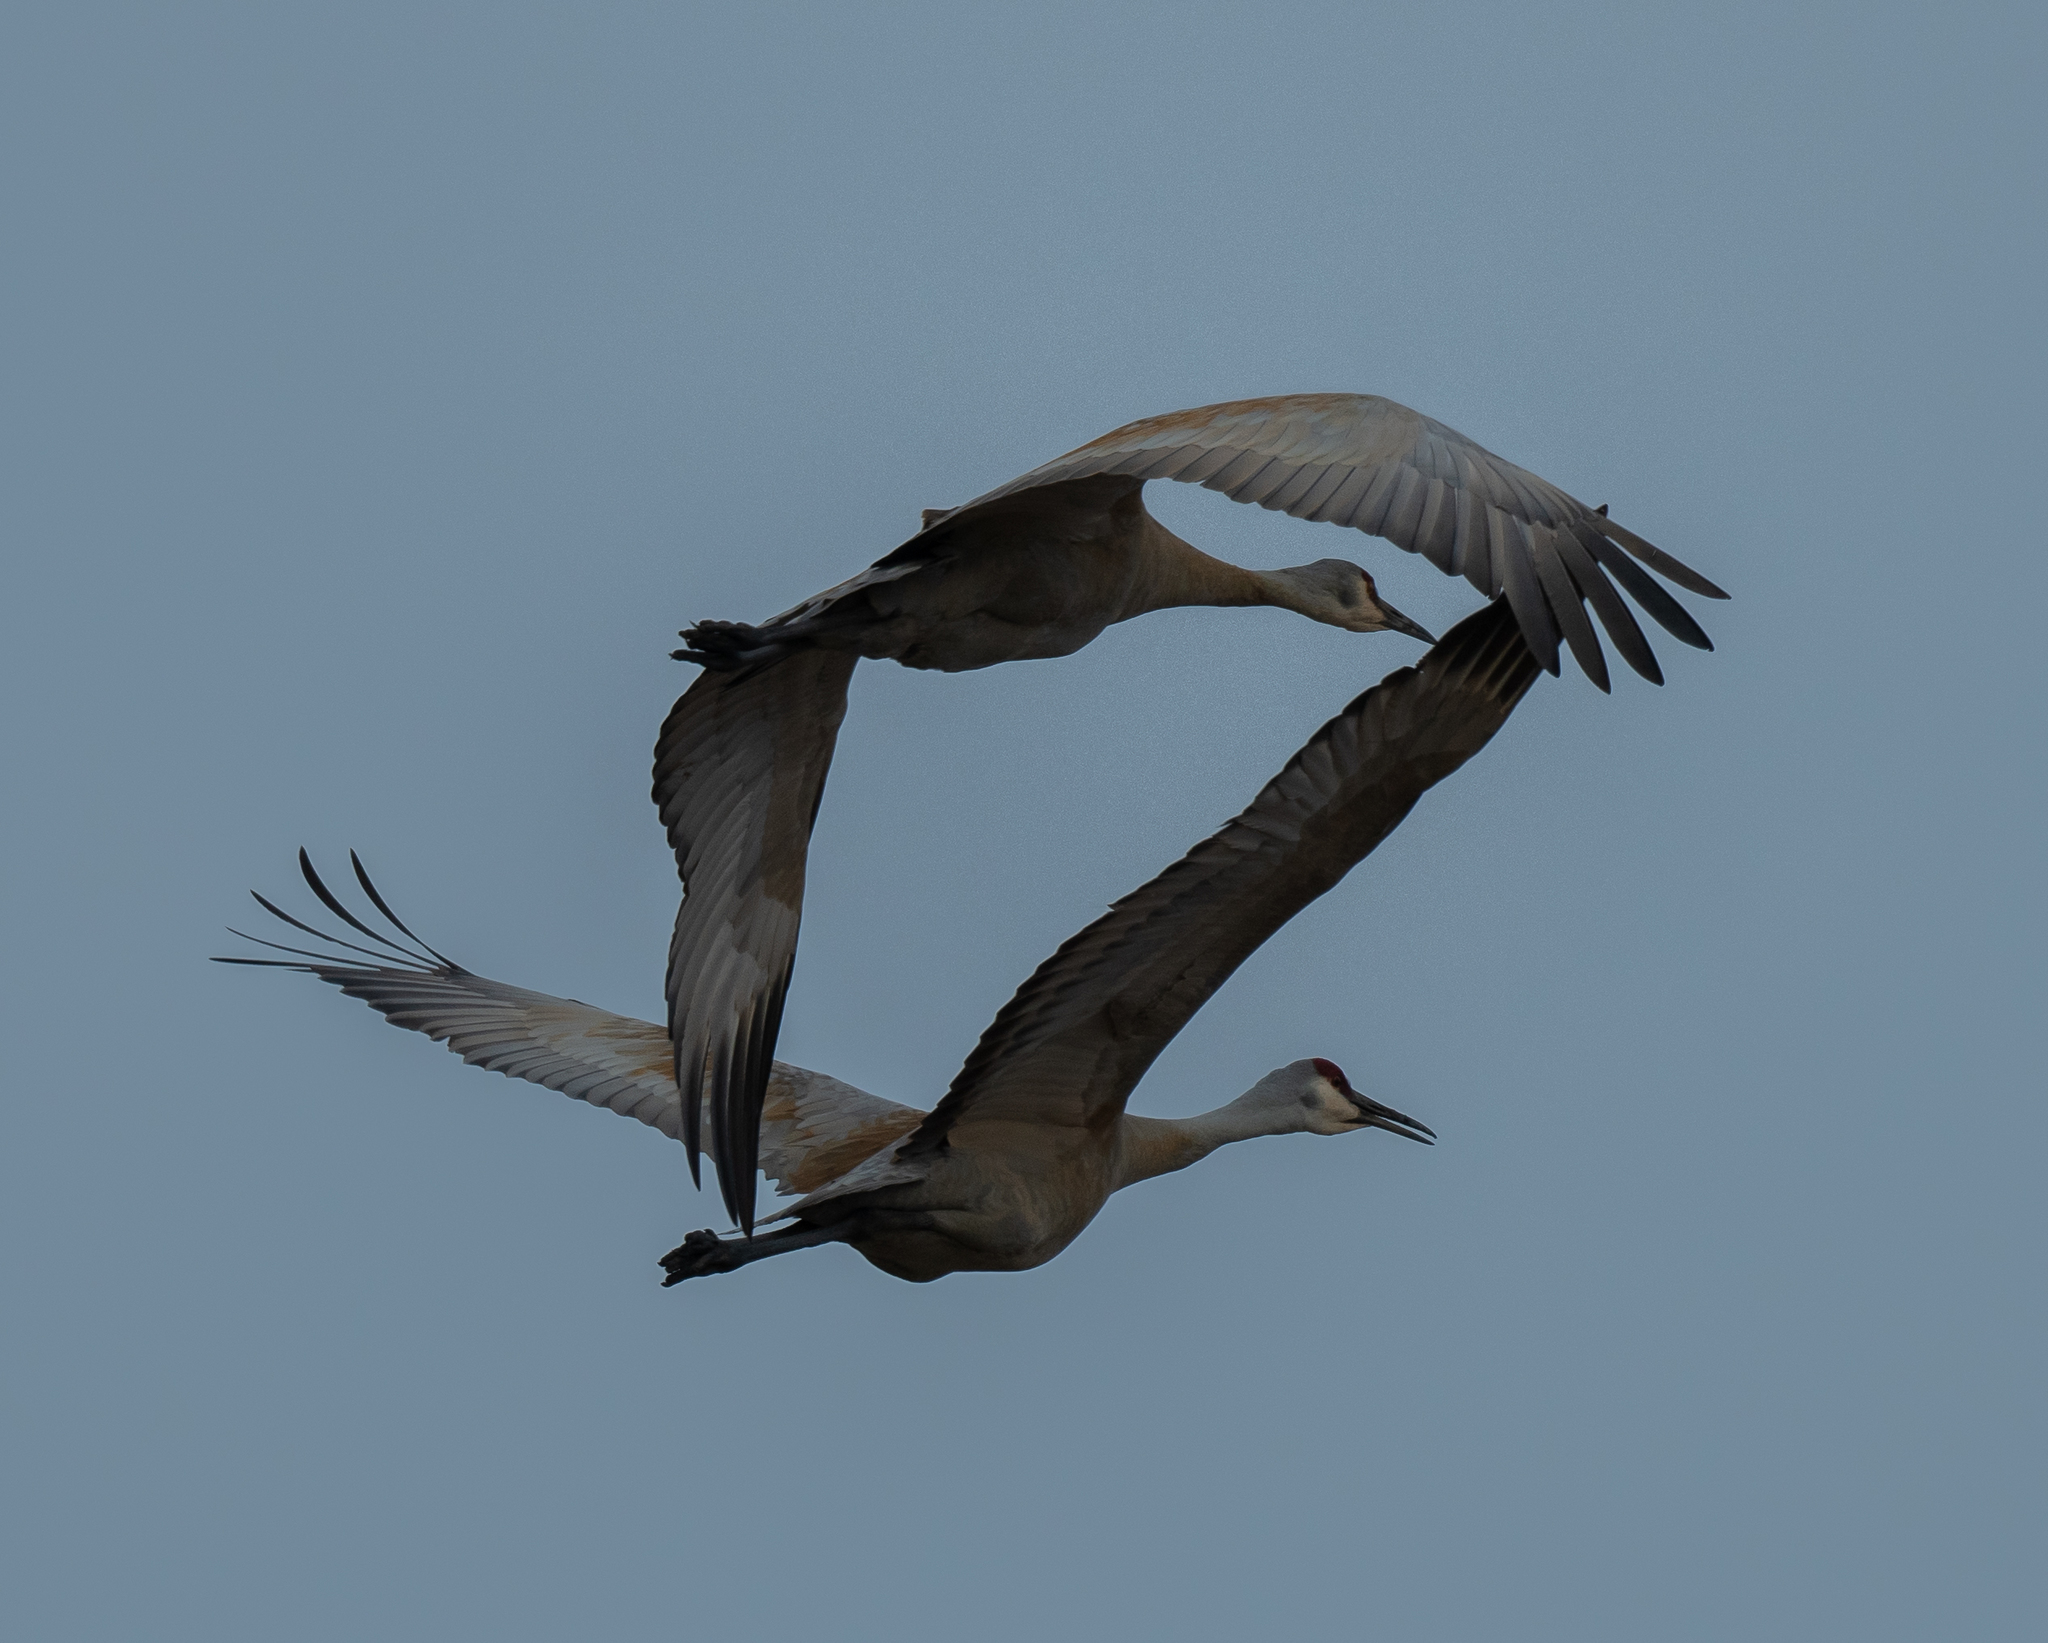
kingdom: Animalia
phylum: Chordata
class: Aves
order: Gruiformes
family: Gruidae
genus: Grus
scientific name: Grus canadensis
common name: Sandhill crane
